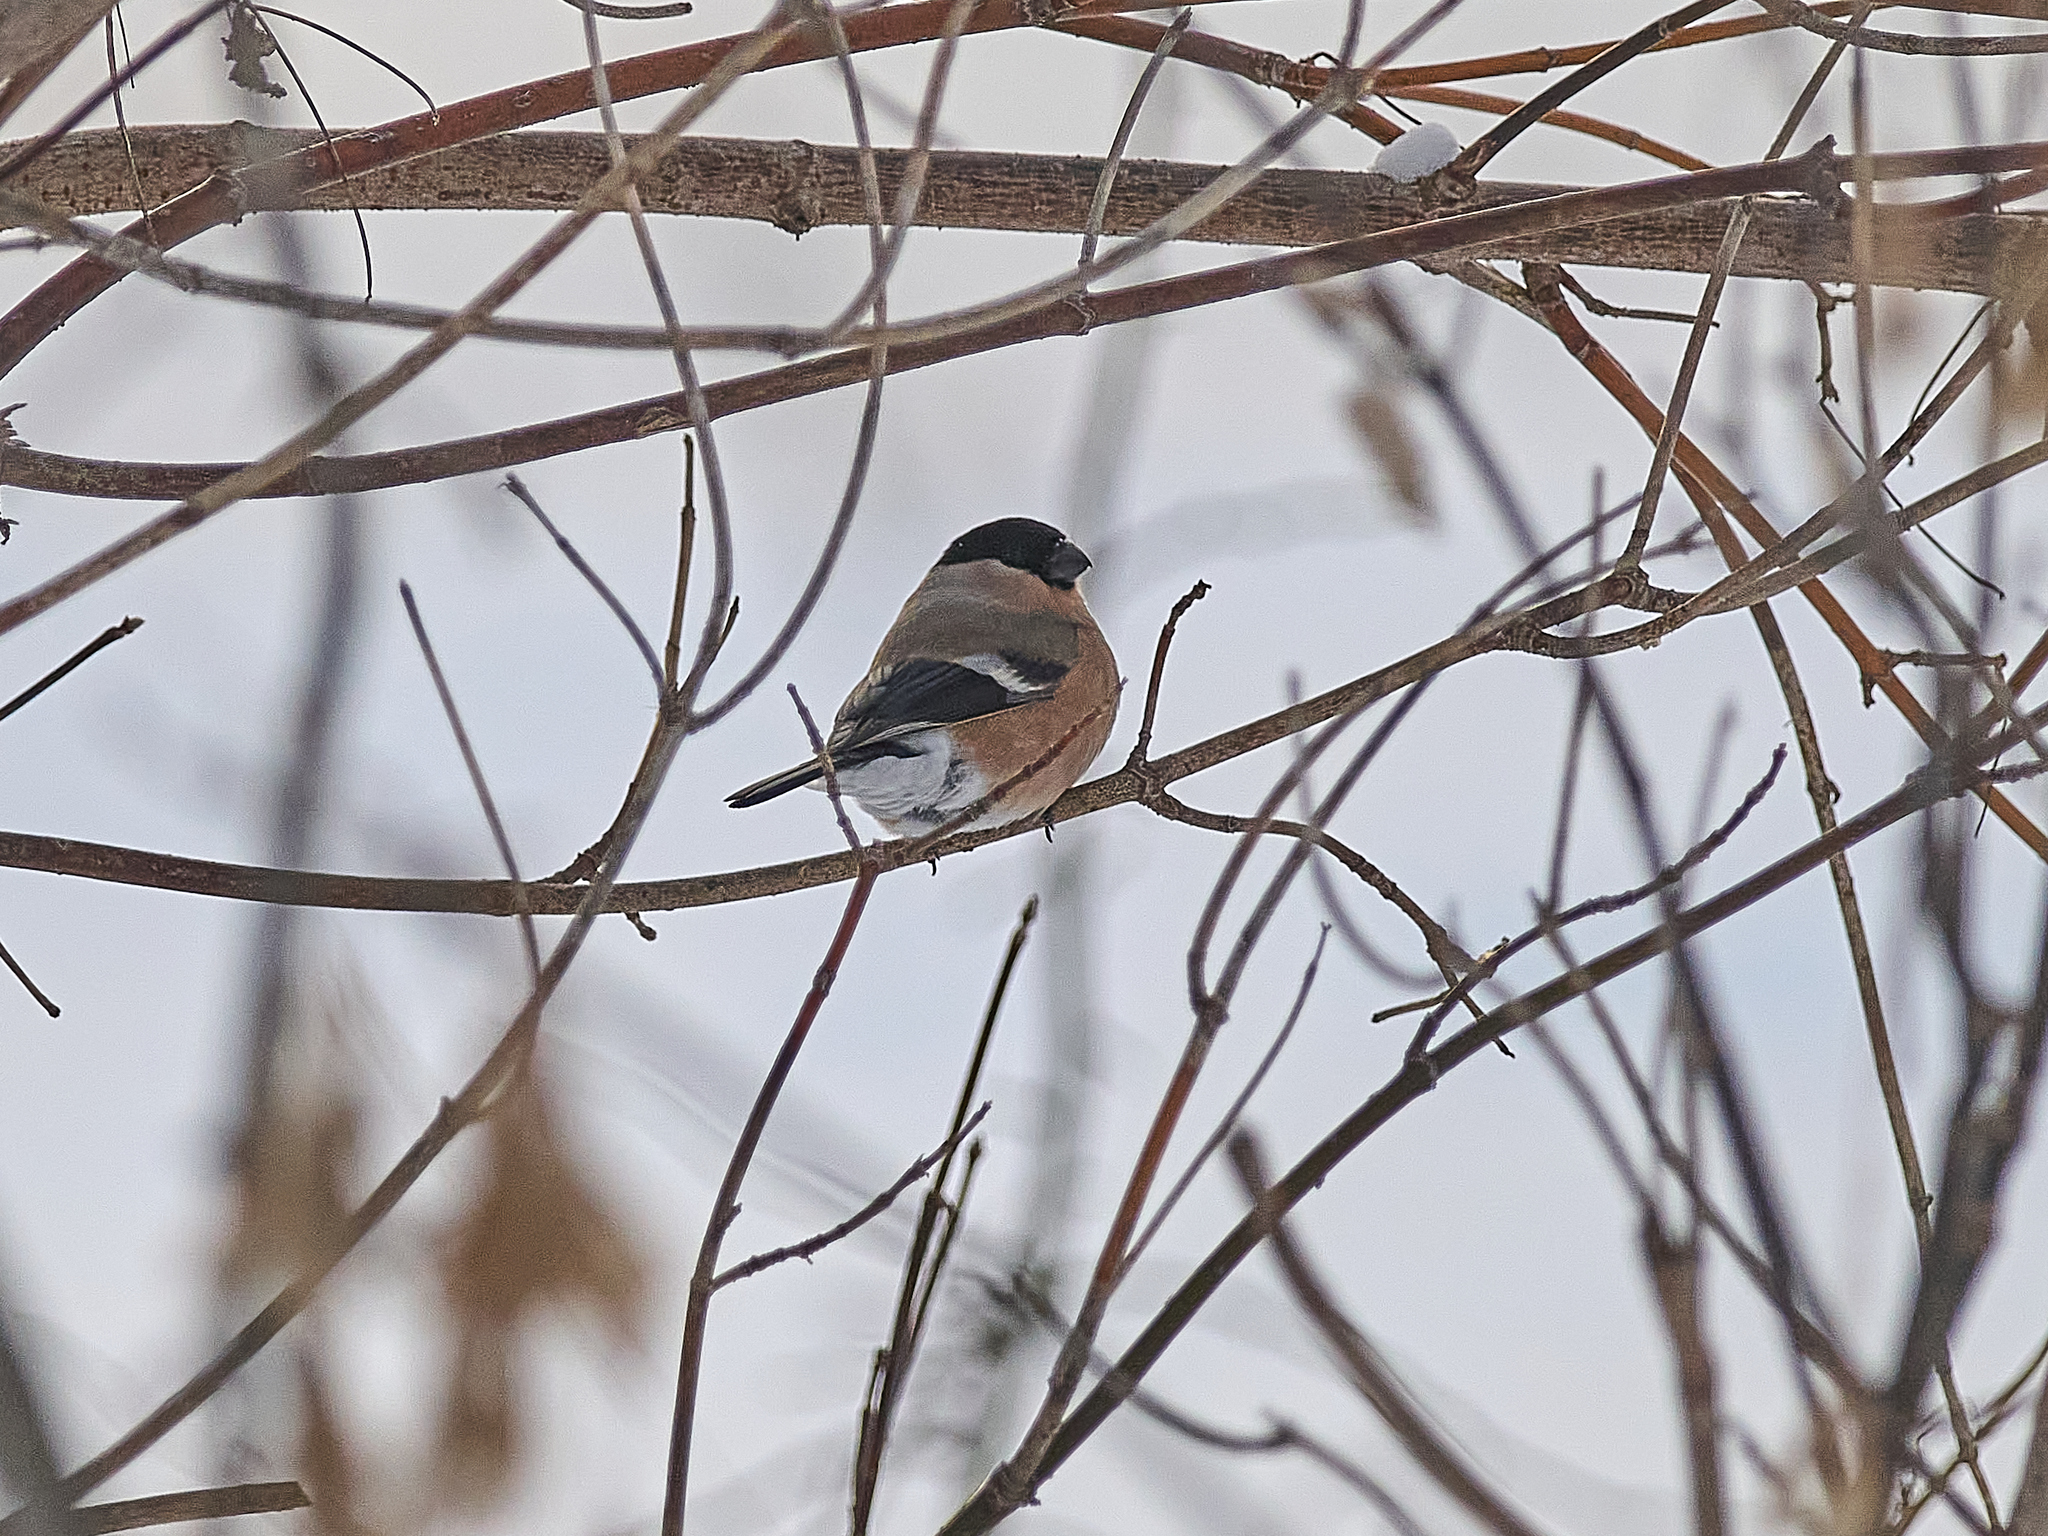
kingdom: Animalia
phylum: Chordata
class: Aves
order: Passeriformes
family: Fringillidae
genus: Pyrrhula
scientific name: Pyrrhula pyrrhula
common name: Eurasian bullfinch
